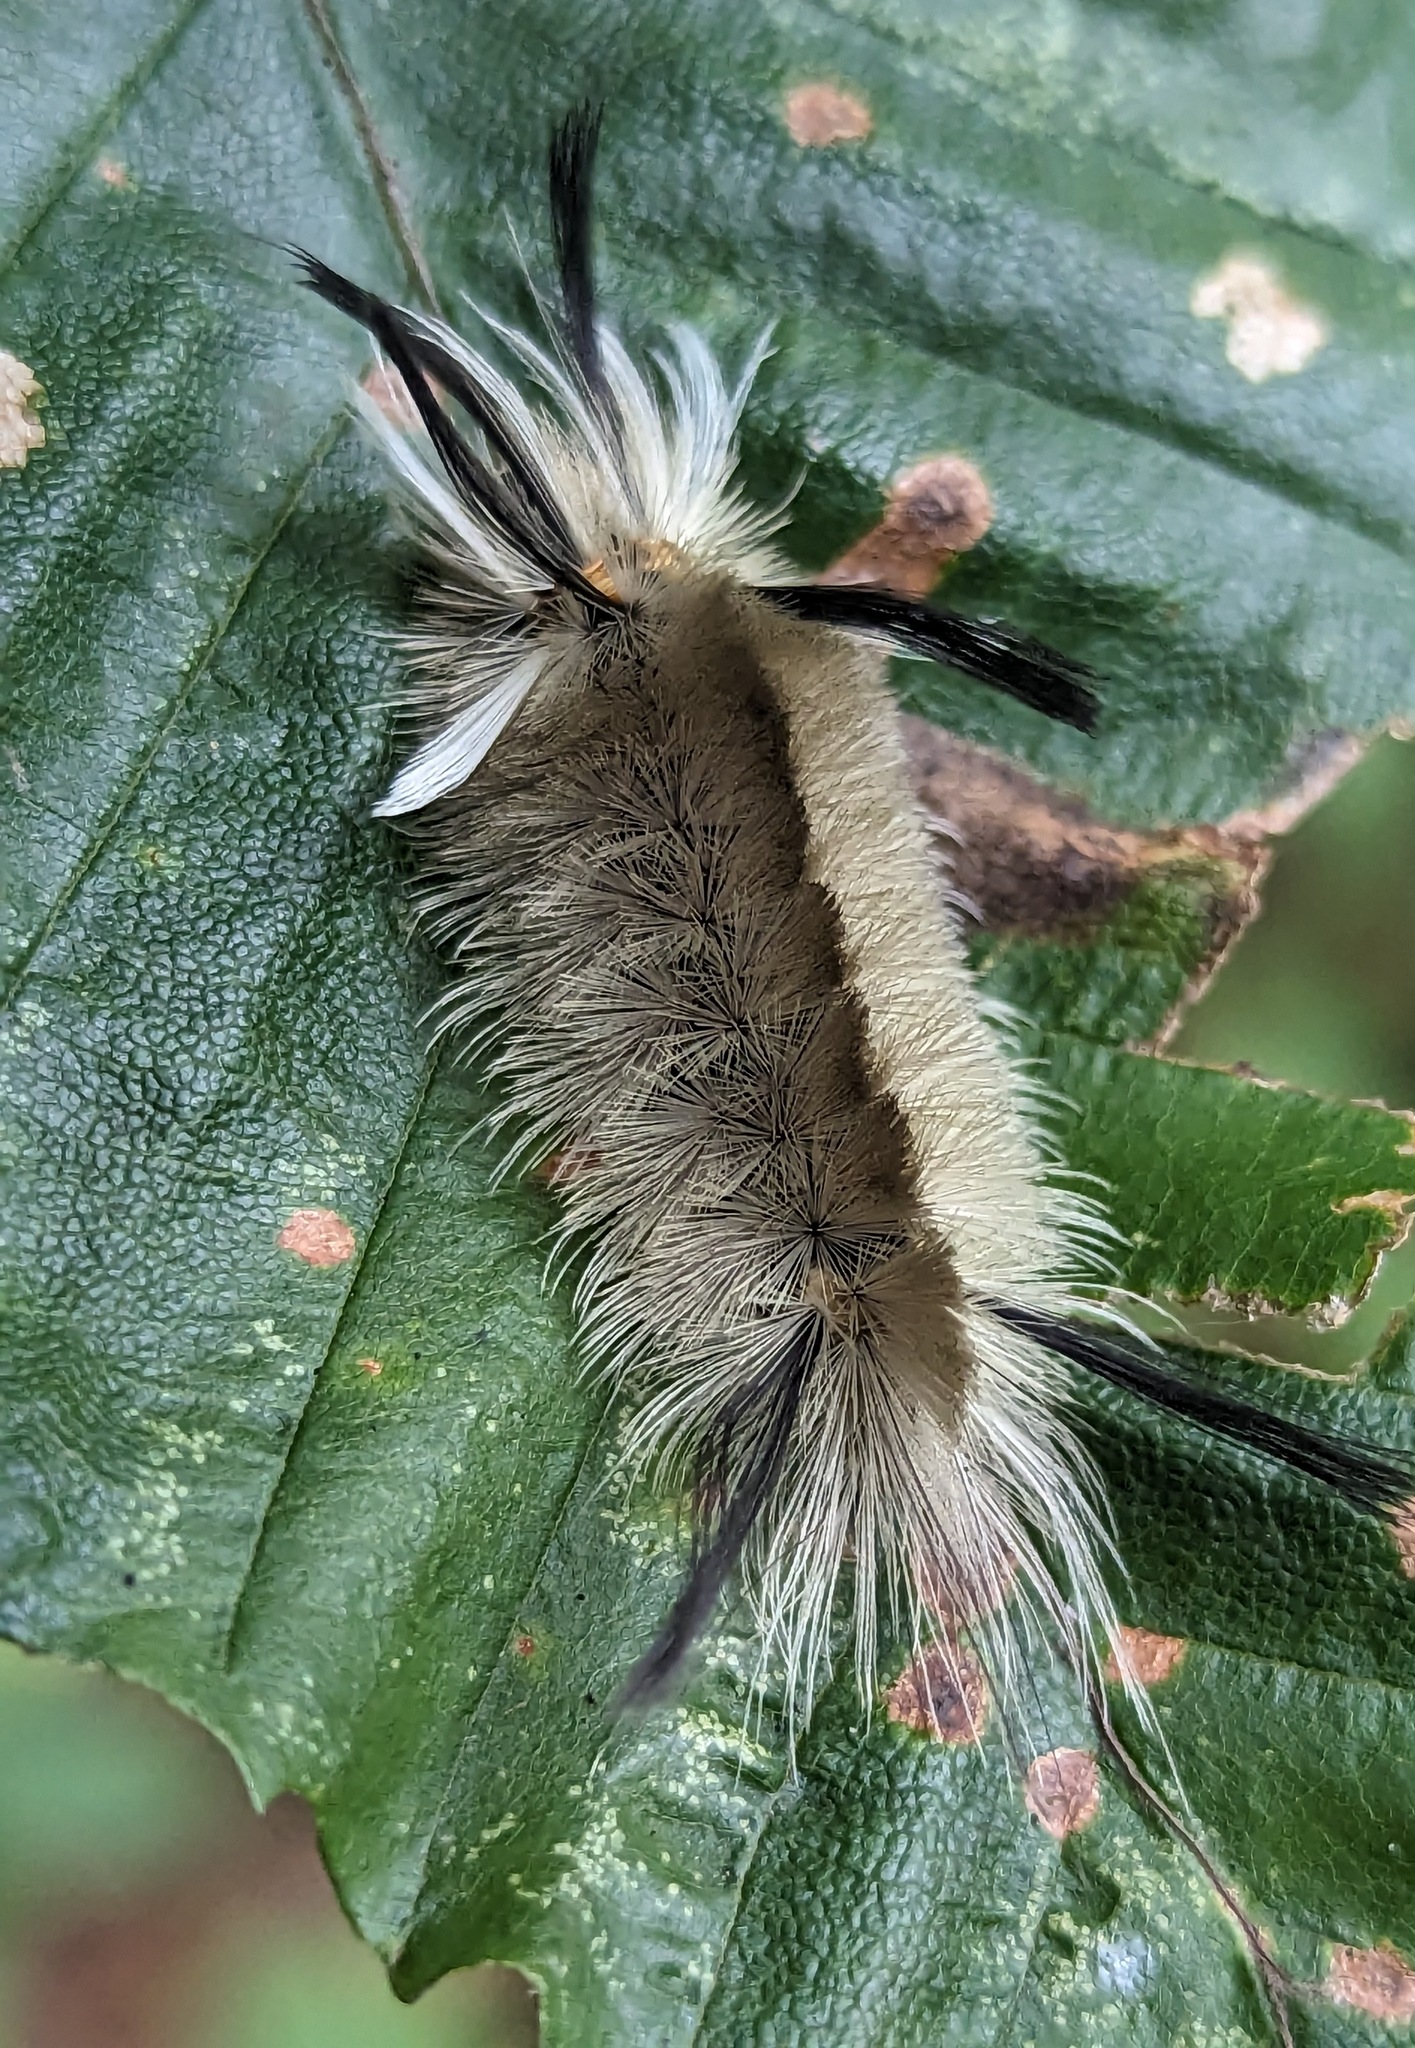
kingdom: Animalia
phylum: Arthropoda
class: Insecta
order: Lepidoptera
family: Erebidae
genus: Halysidota
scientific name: Halysidota tessellaris
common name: Banded tussock moth
